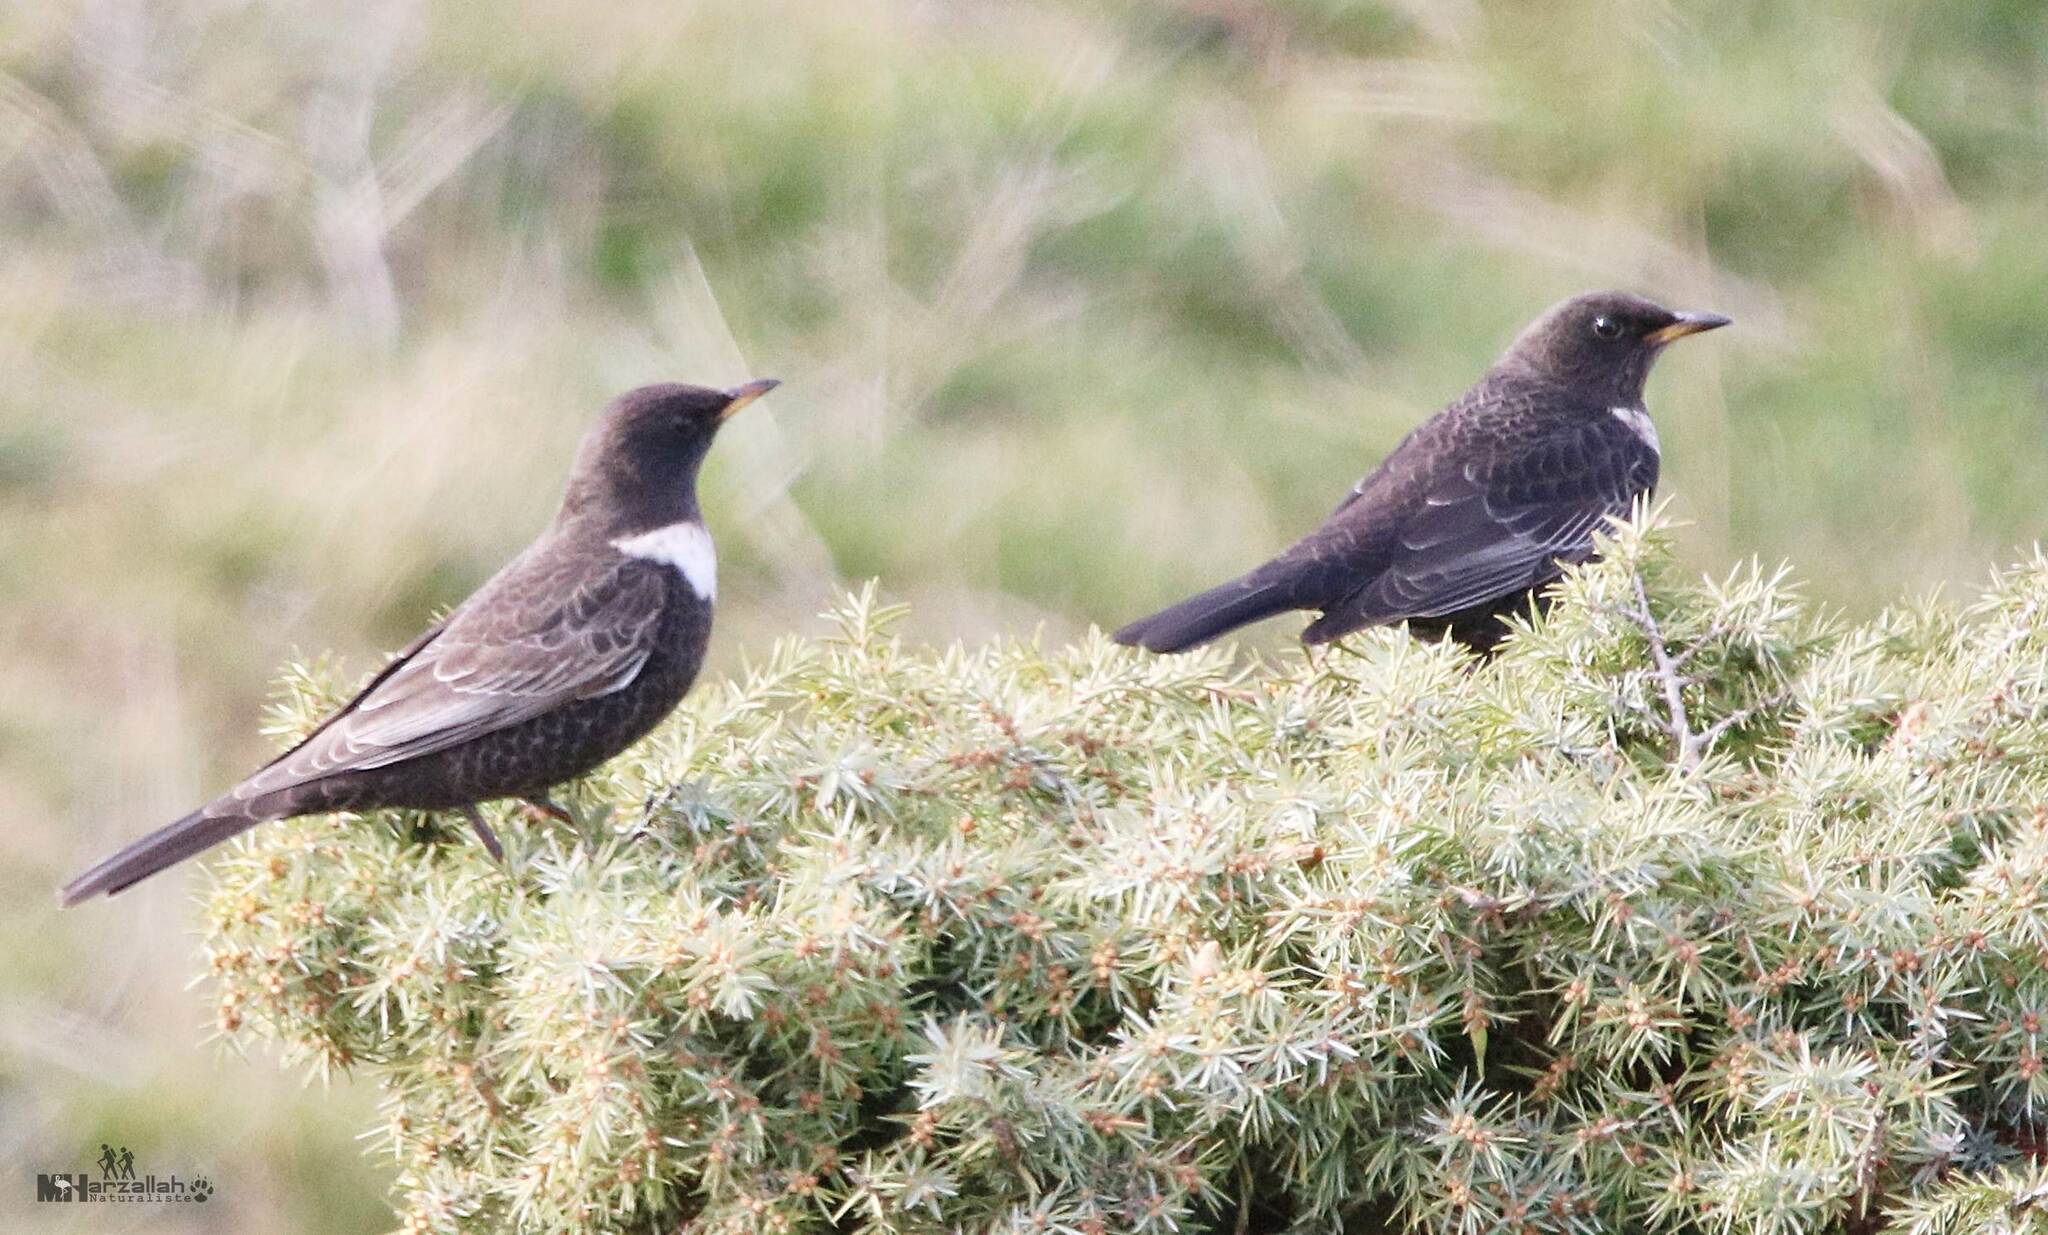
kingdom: Animalia
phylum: Chordata
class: Aves
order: Passeriformes
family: Turdidae
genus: Turdus
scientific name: Turdus torquatus
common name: Ring ouzel
